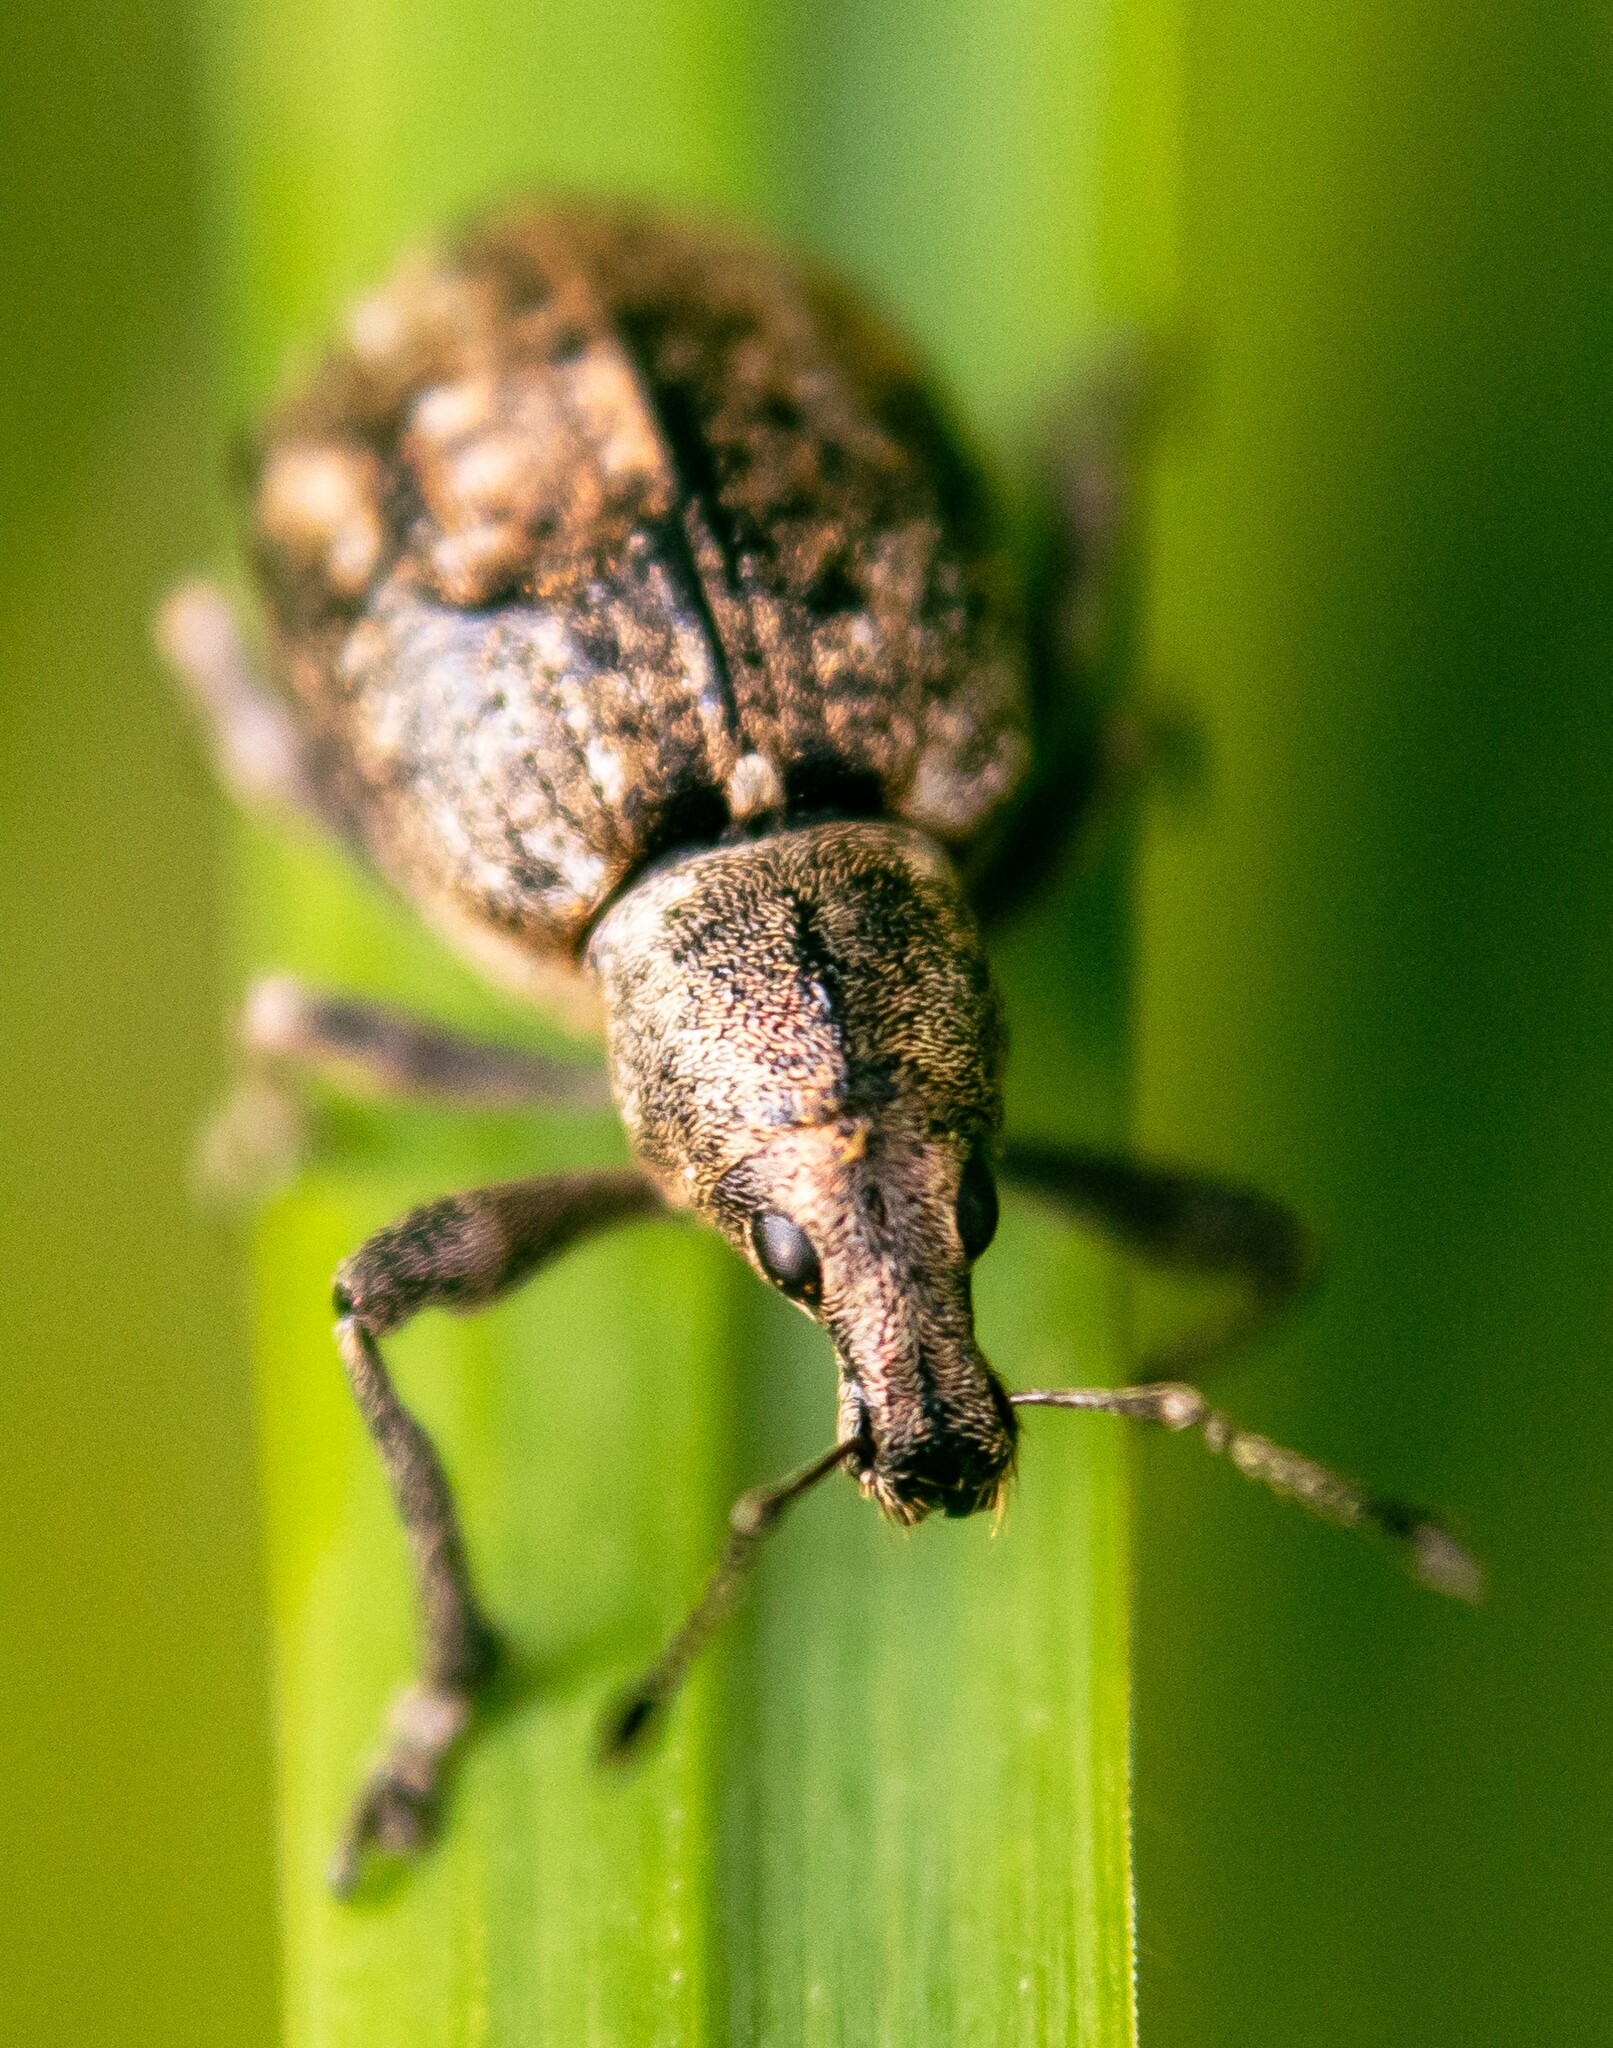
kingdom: Animalia
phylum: Arthropoda
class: Insecta
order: Coleoptera
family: Curculionidae
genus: Liophloeus
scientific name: Liophloeus tessulatus
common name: Weevil
